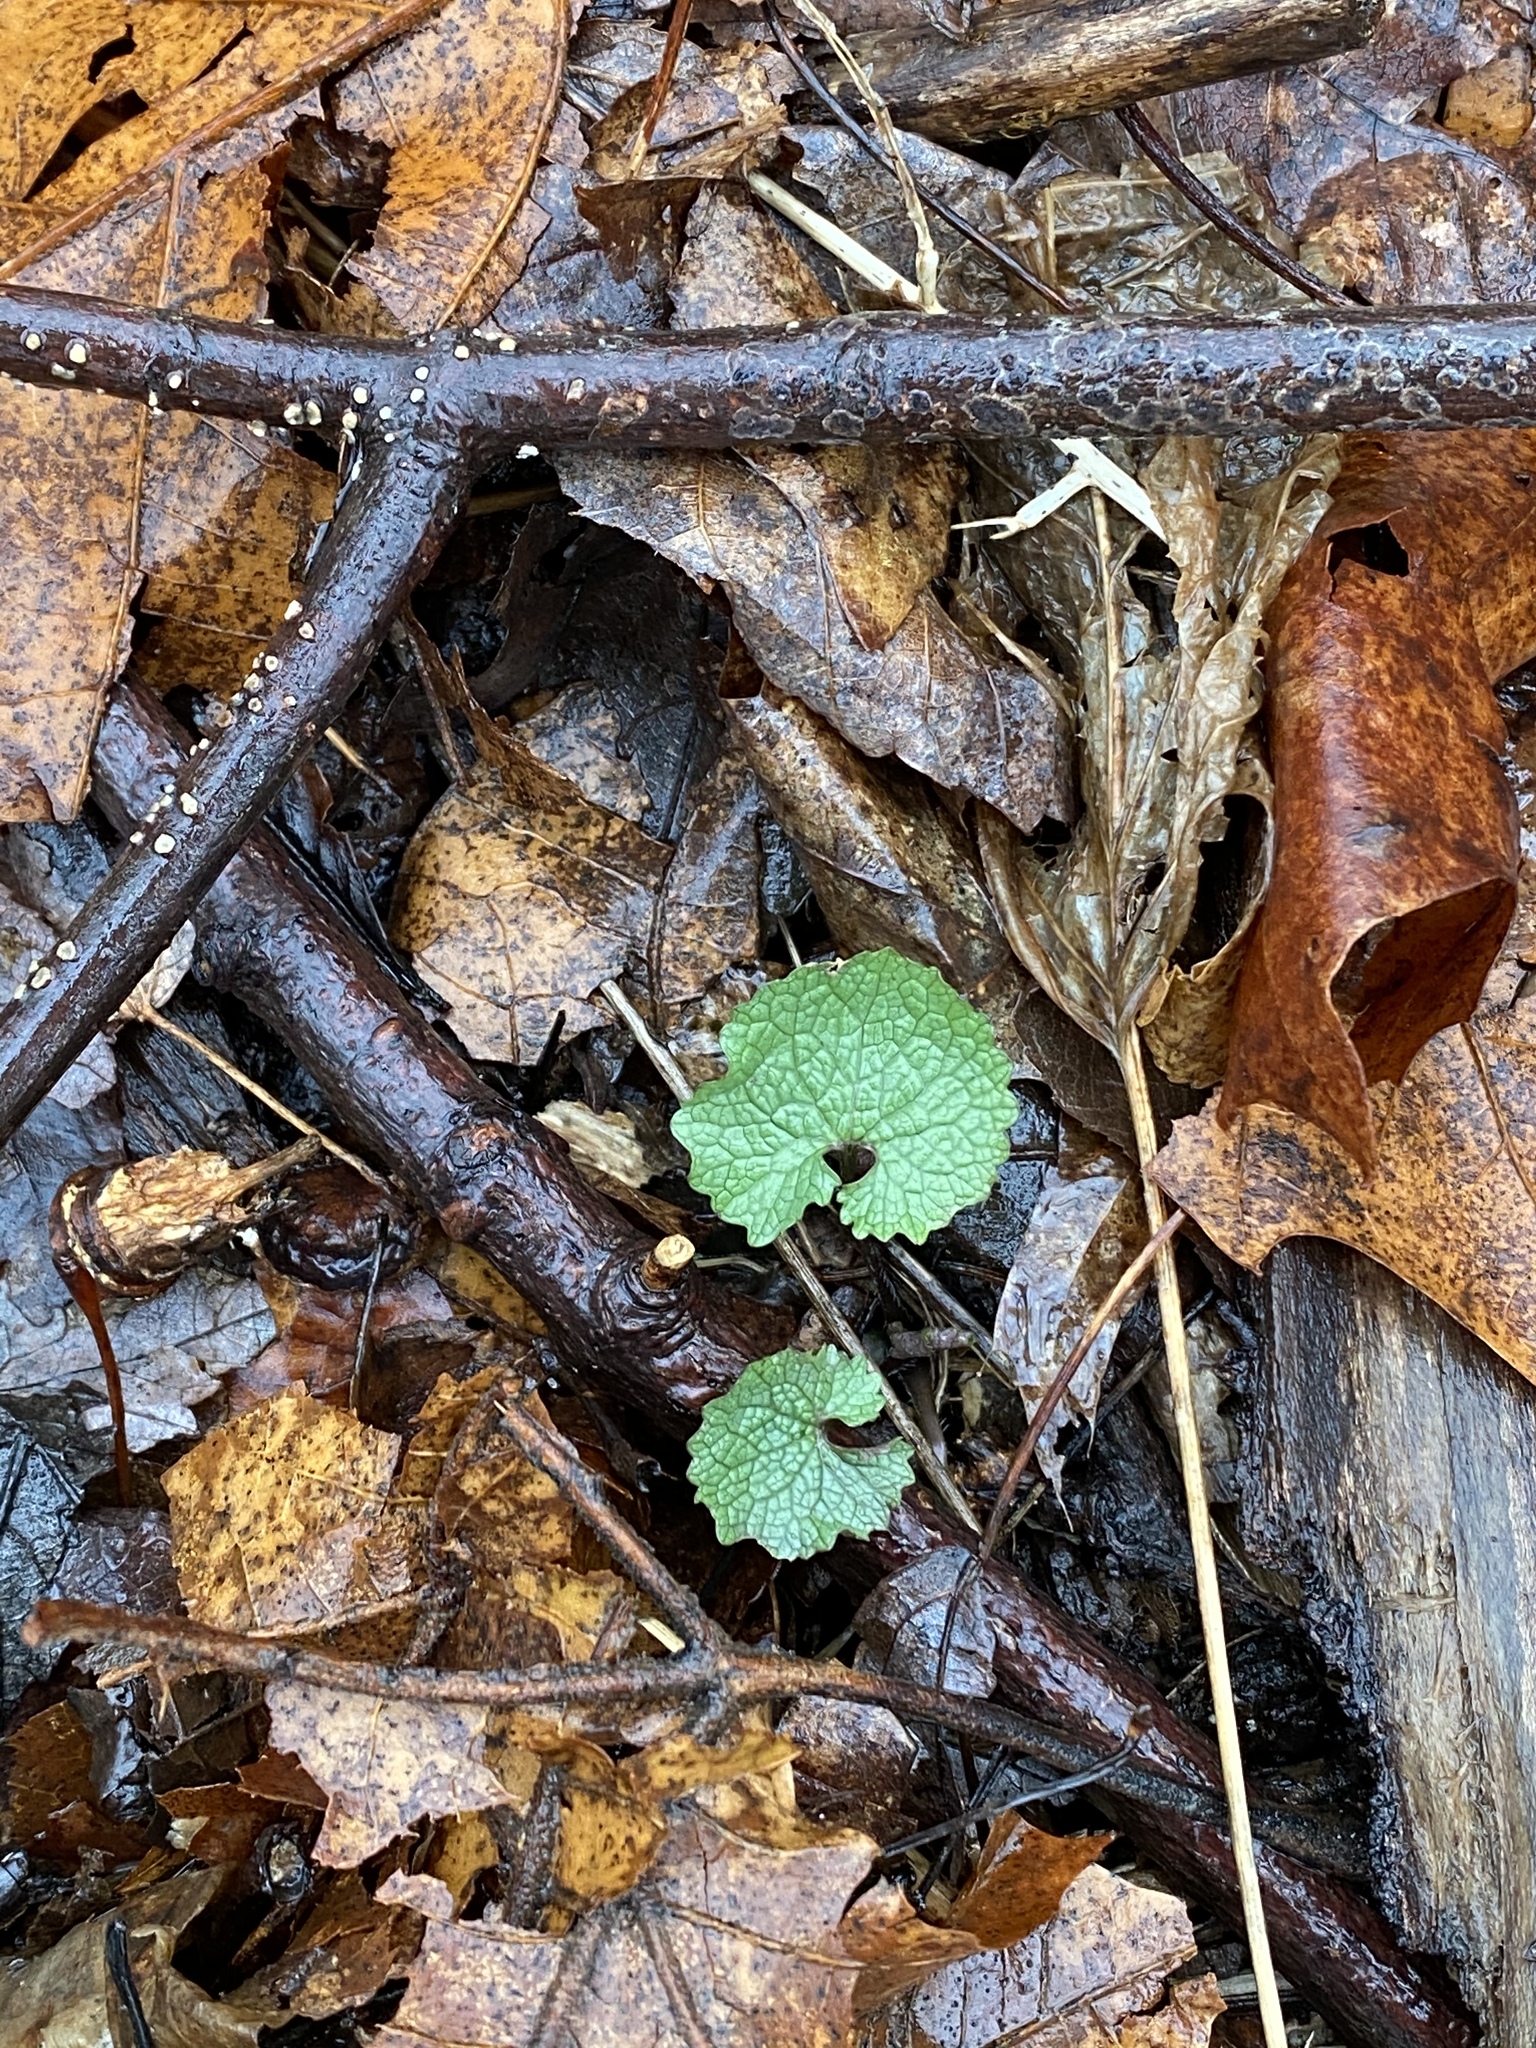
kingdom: Plantae
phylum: Tracheophyta
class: Magnoliopsida
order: Brassicales
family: Brassicaceae
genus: Alliaria
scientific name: Alliaria petiolata
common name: Garlic mustard
